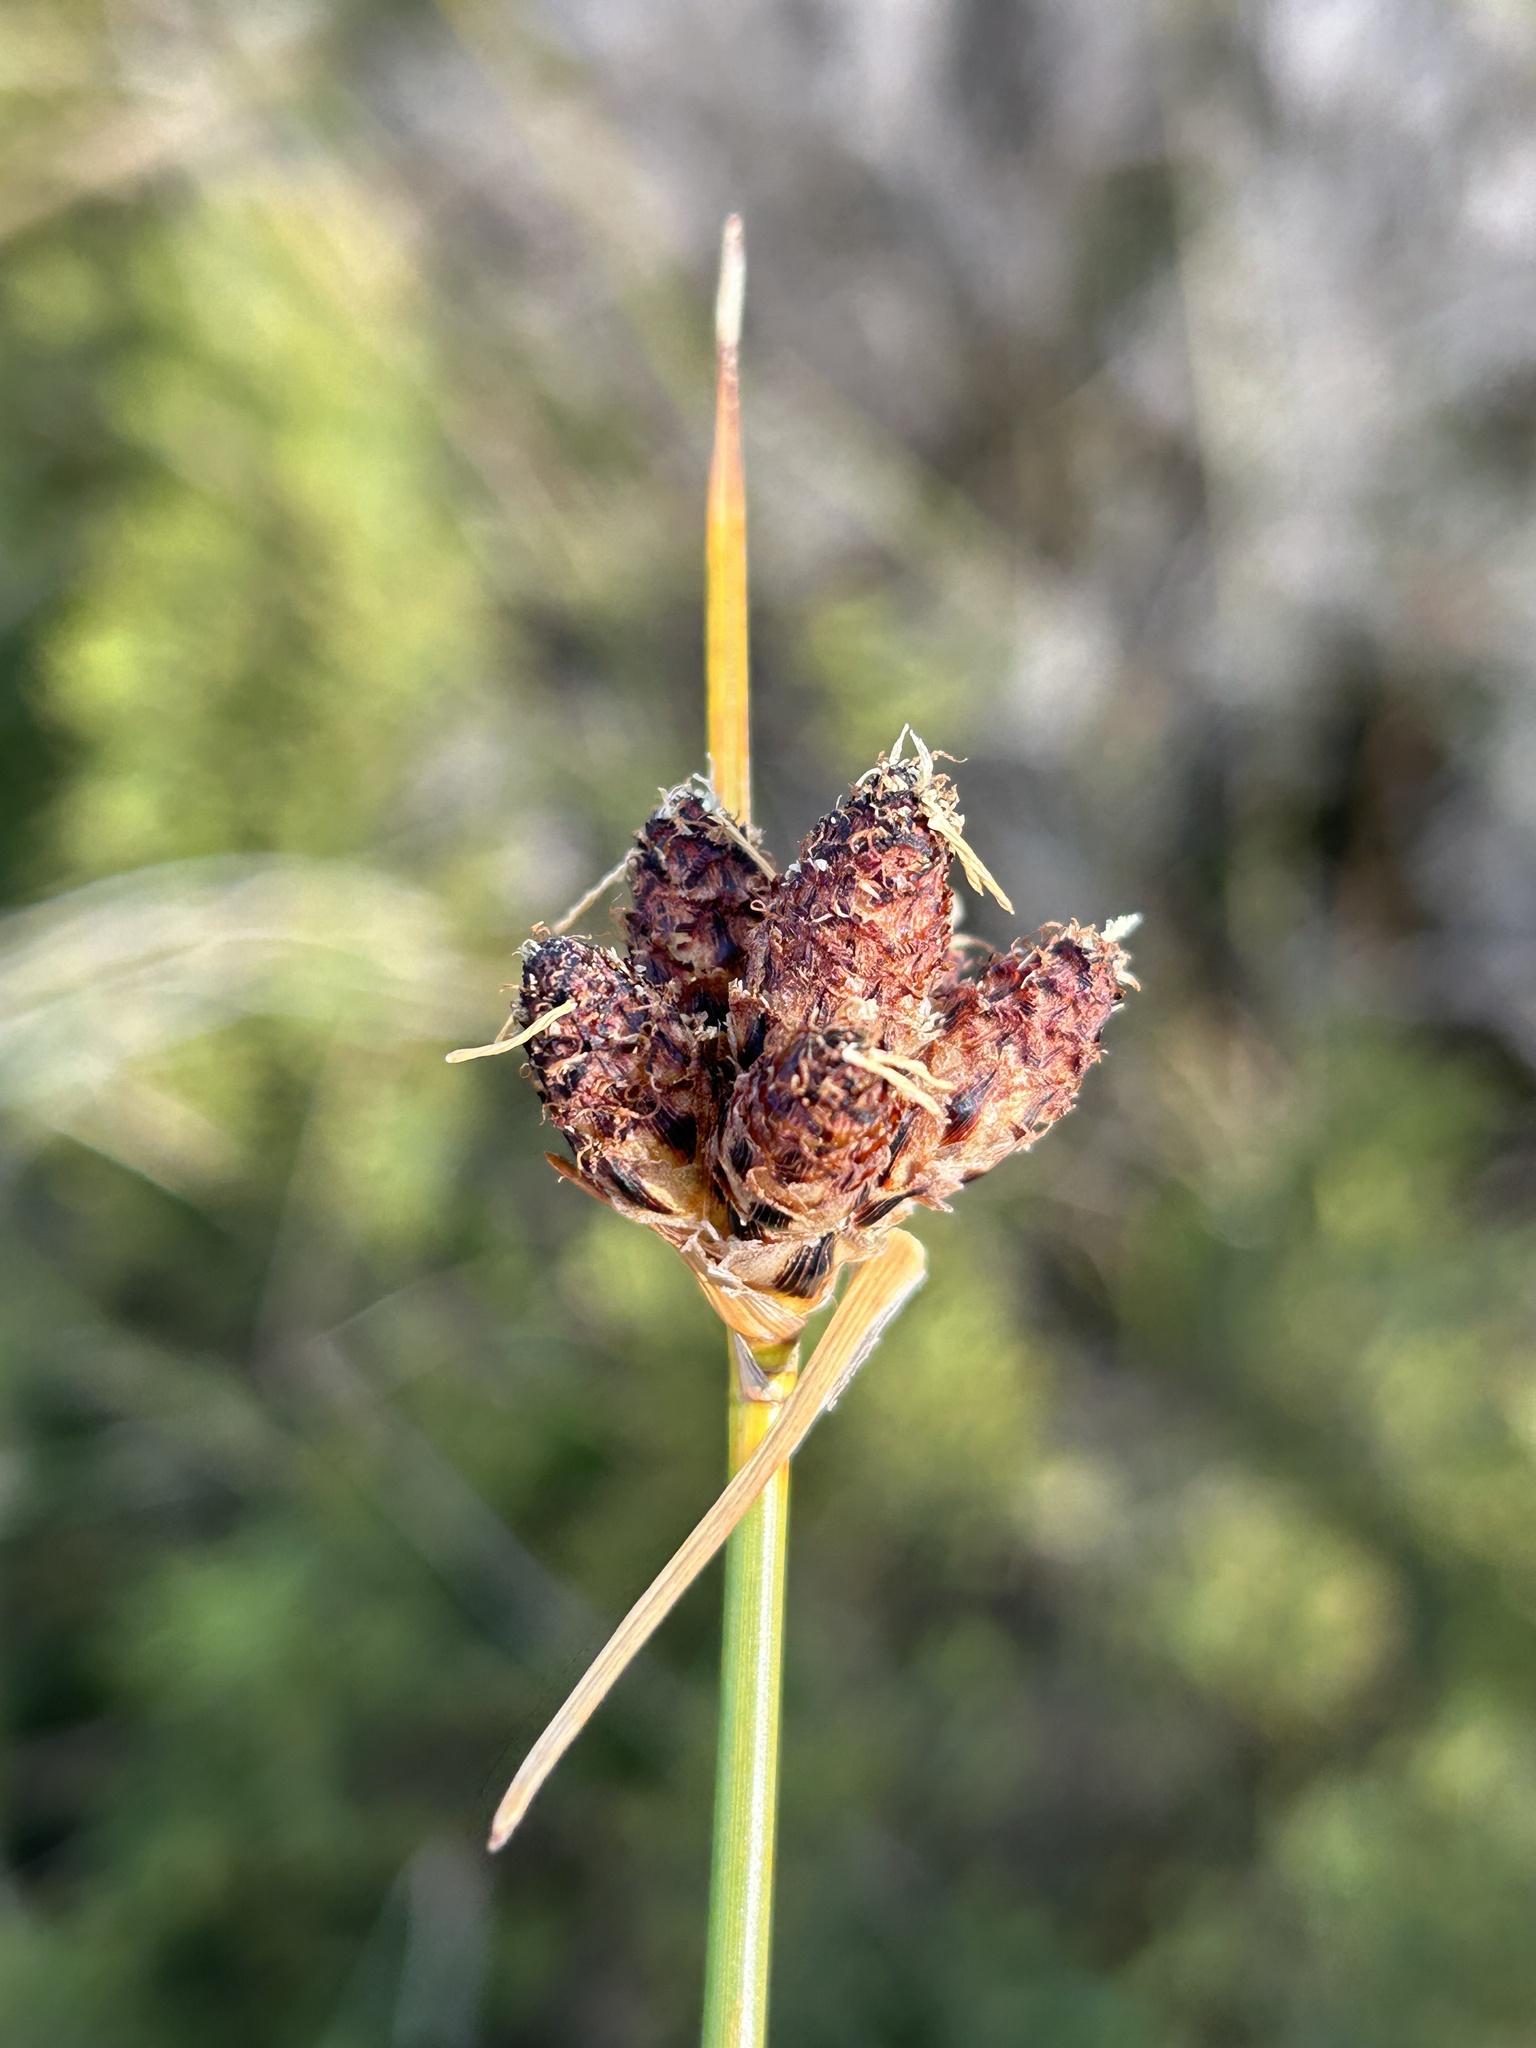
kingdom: Plantae
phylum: Tracheophyta
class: Liliopsida
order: Poales
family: Cyperaceae
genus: Hellmuthia
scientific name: Hellmuthia membranacea
